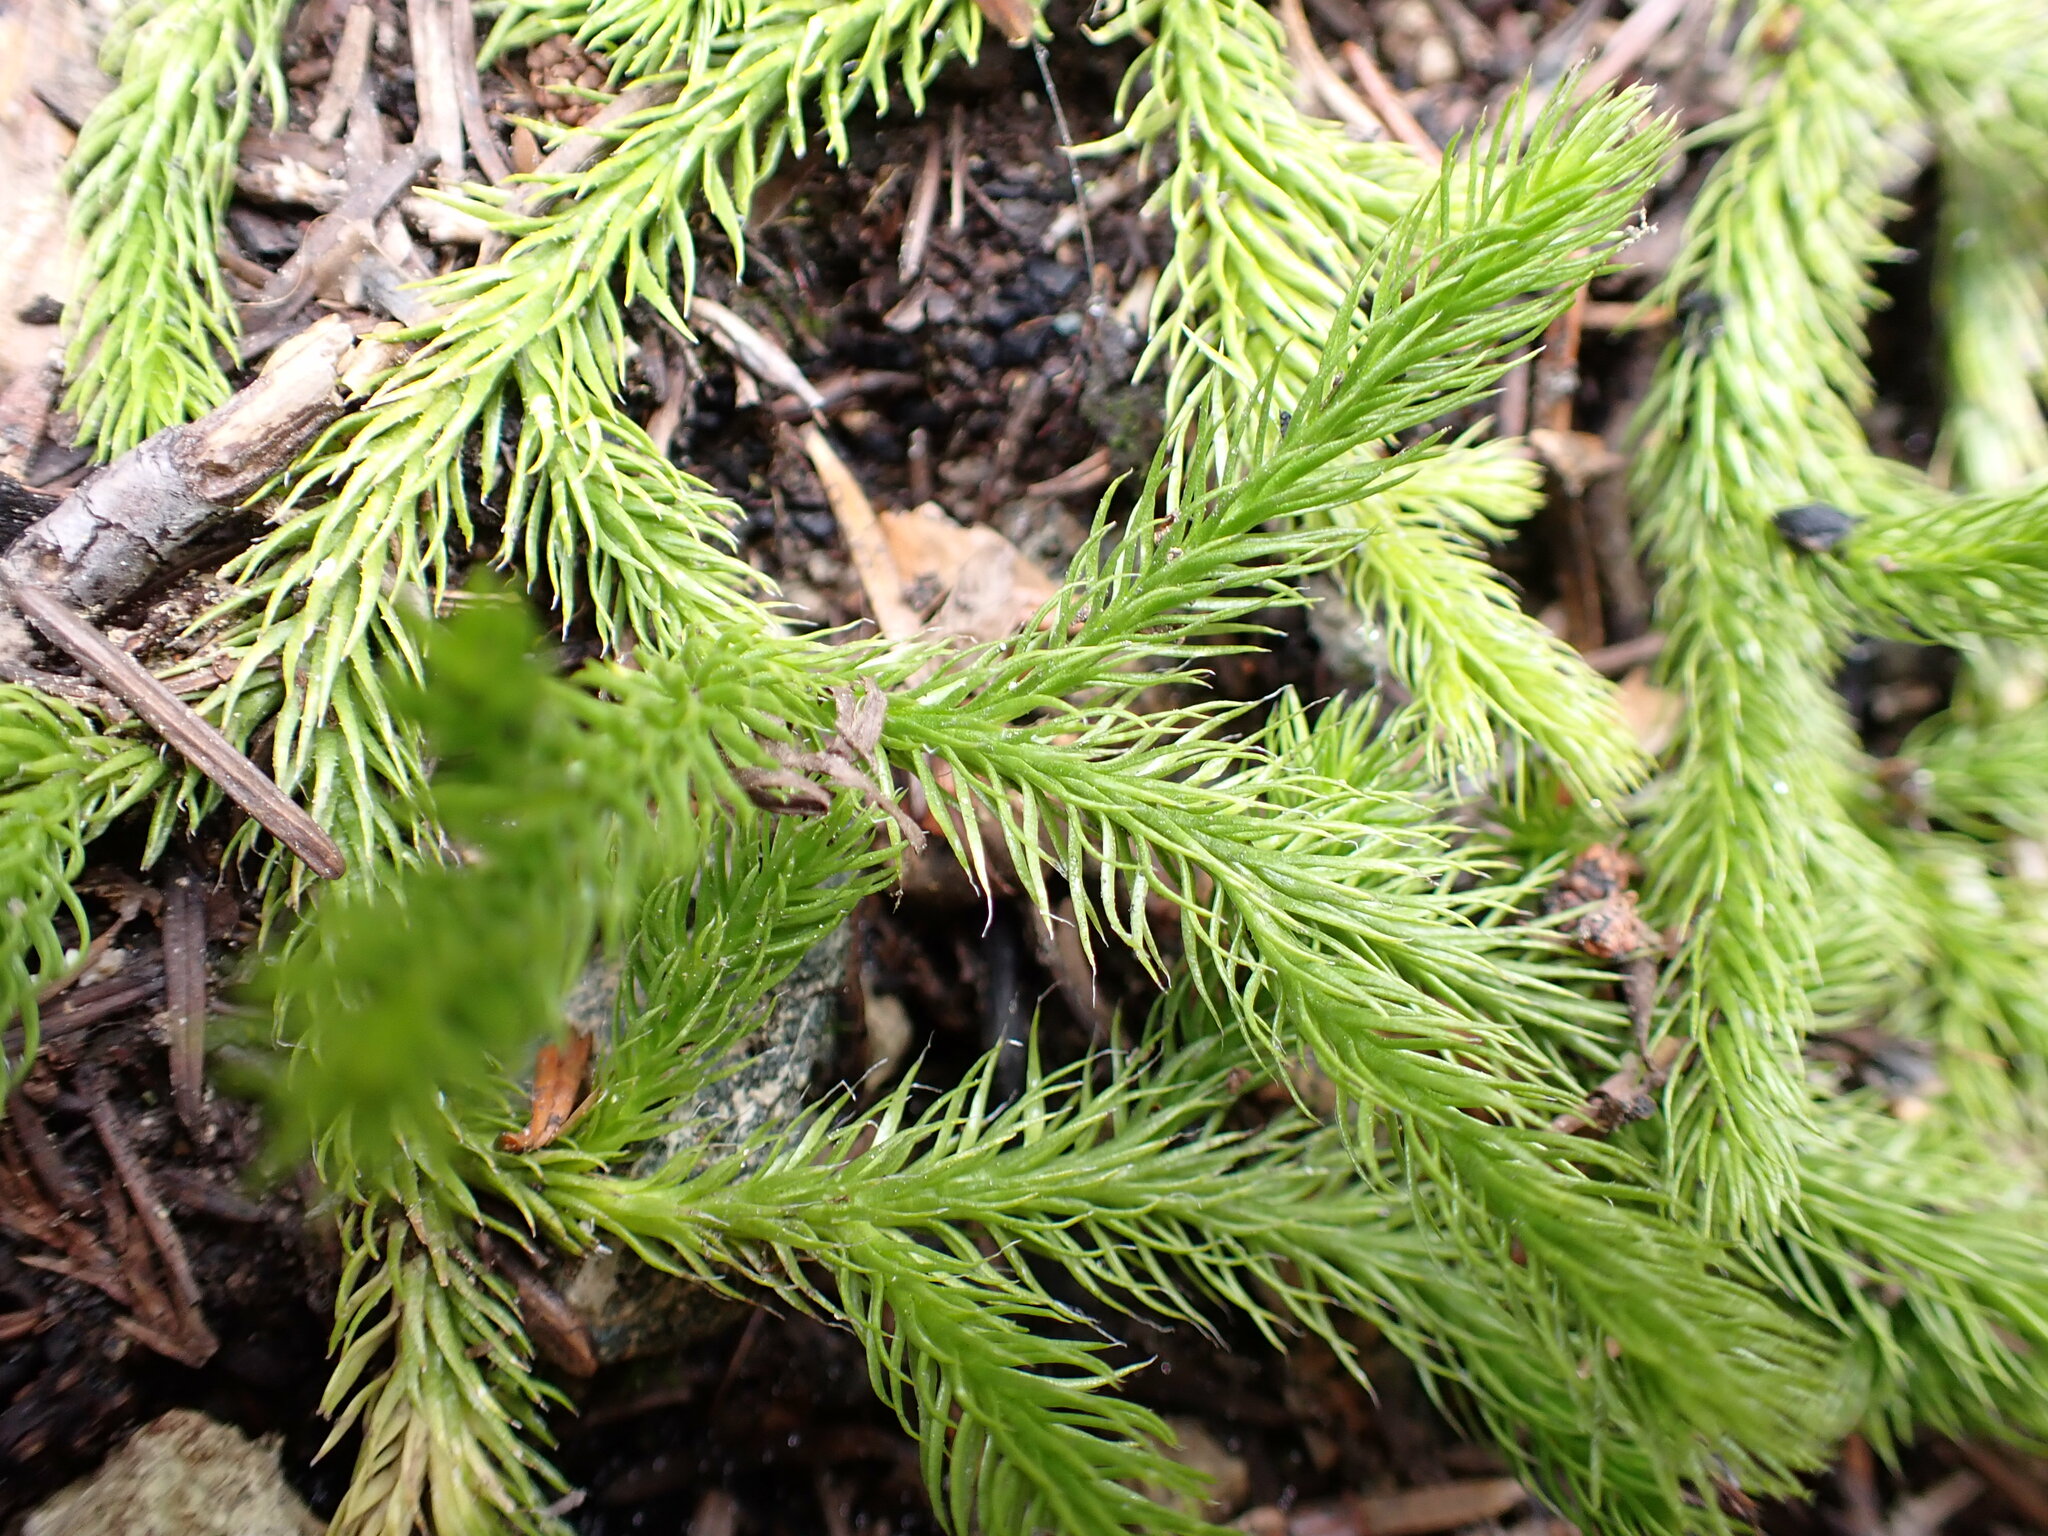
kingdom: Plantae
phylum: Tracheophyta
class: Lycopodiopsida
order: Lycopodiales
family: Lycopodiaceae
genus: Lycopodium
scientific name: Lycopodium clavatum
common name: Stag's-horn clubmoss
